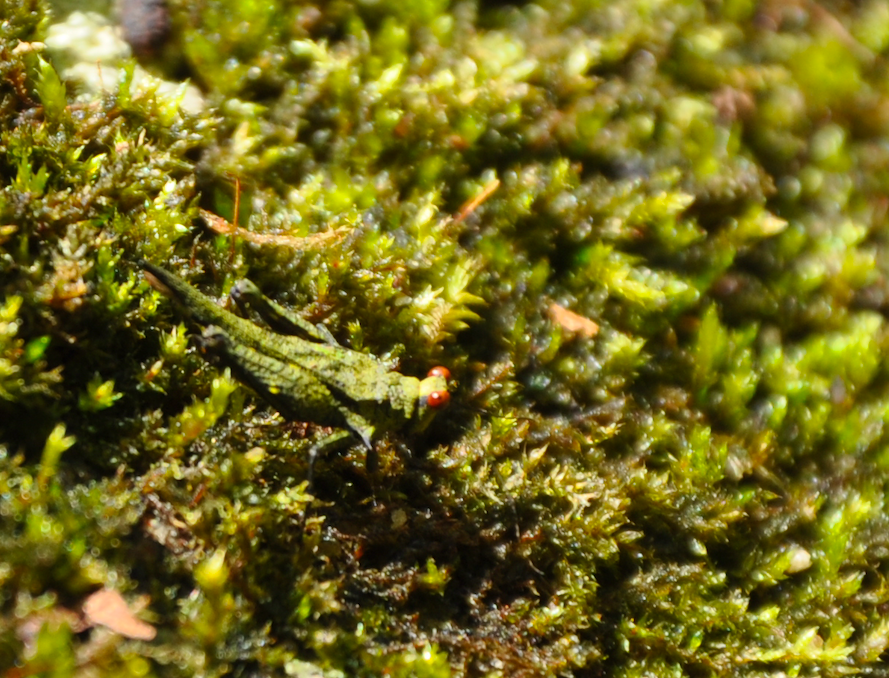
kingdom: Animalia
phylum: Arthropoda
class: Insecta
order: Orthoptera
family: Tetrigidae
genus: Oxytettix
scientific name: Oxytettix arius
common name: Yellow-dot black pygmy grasshopper
